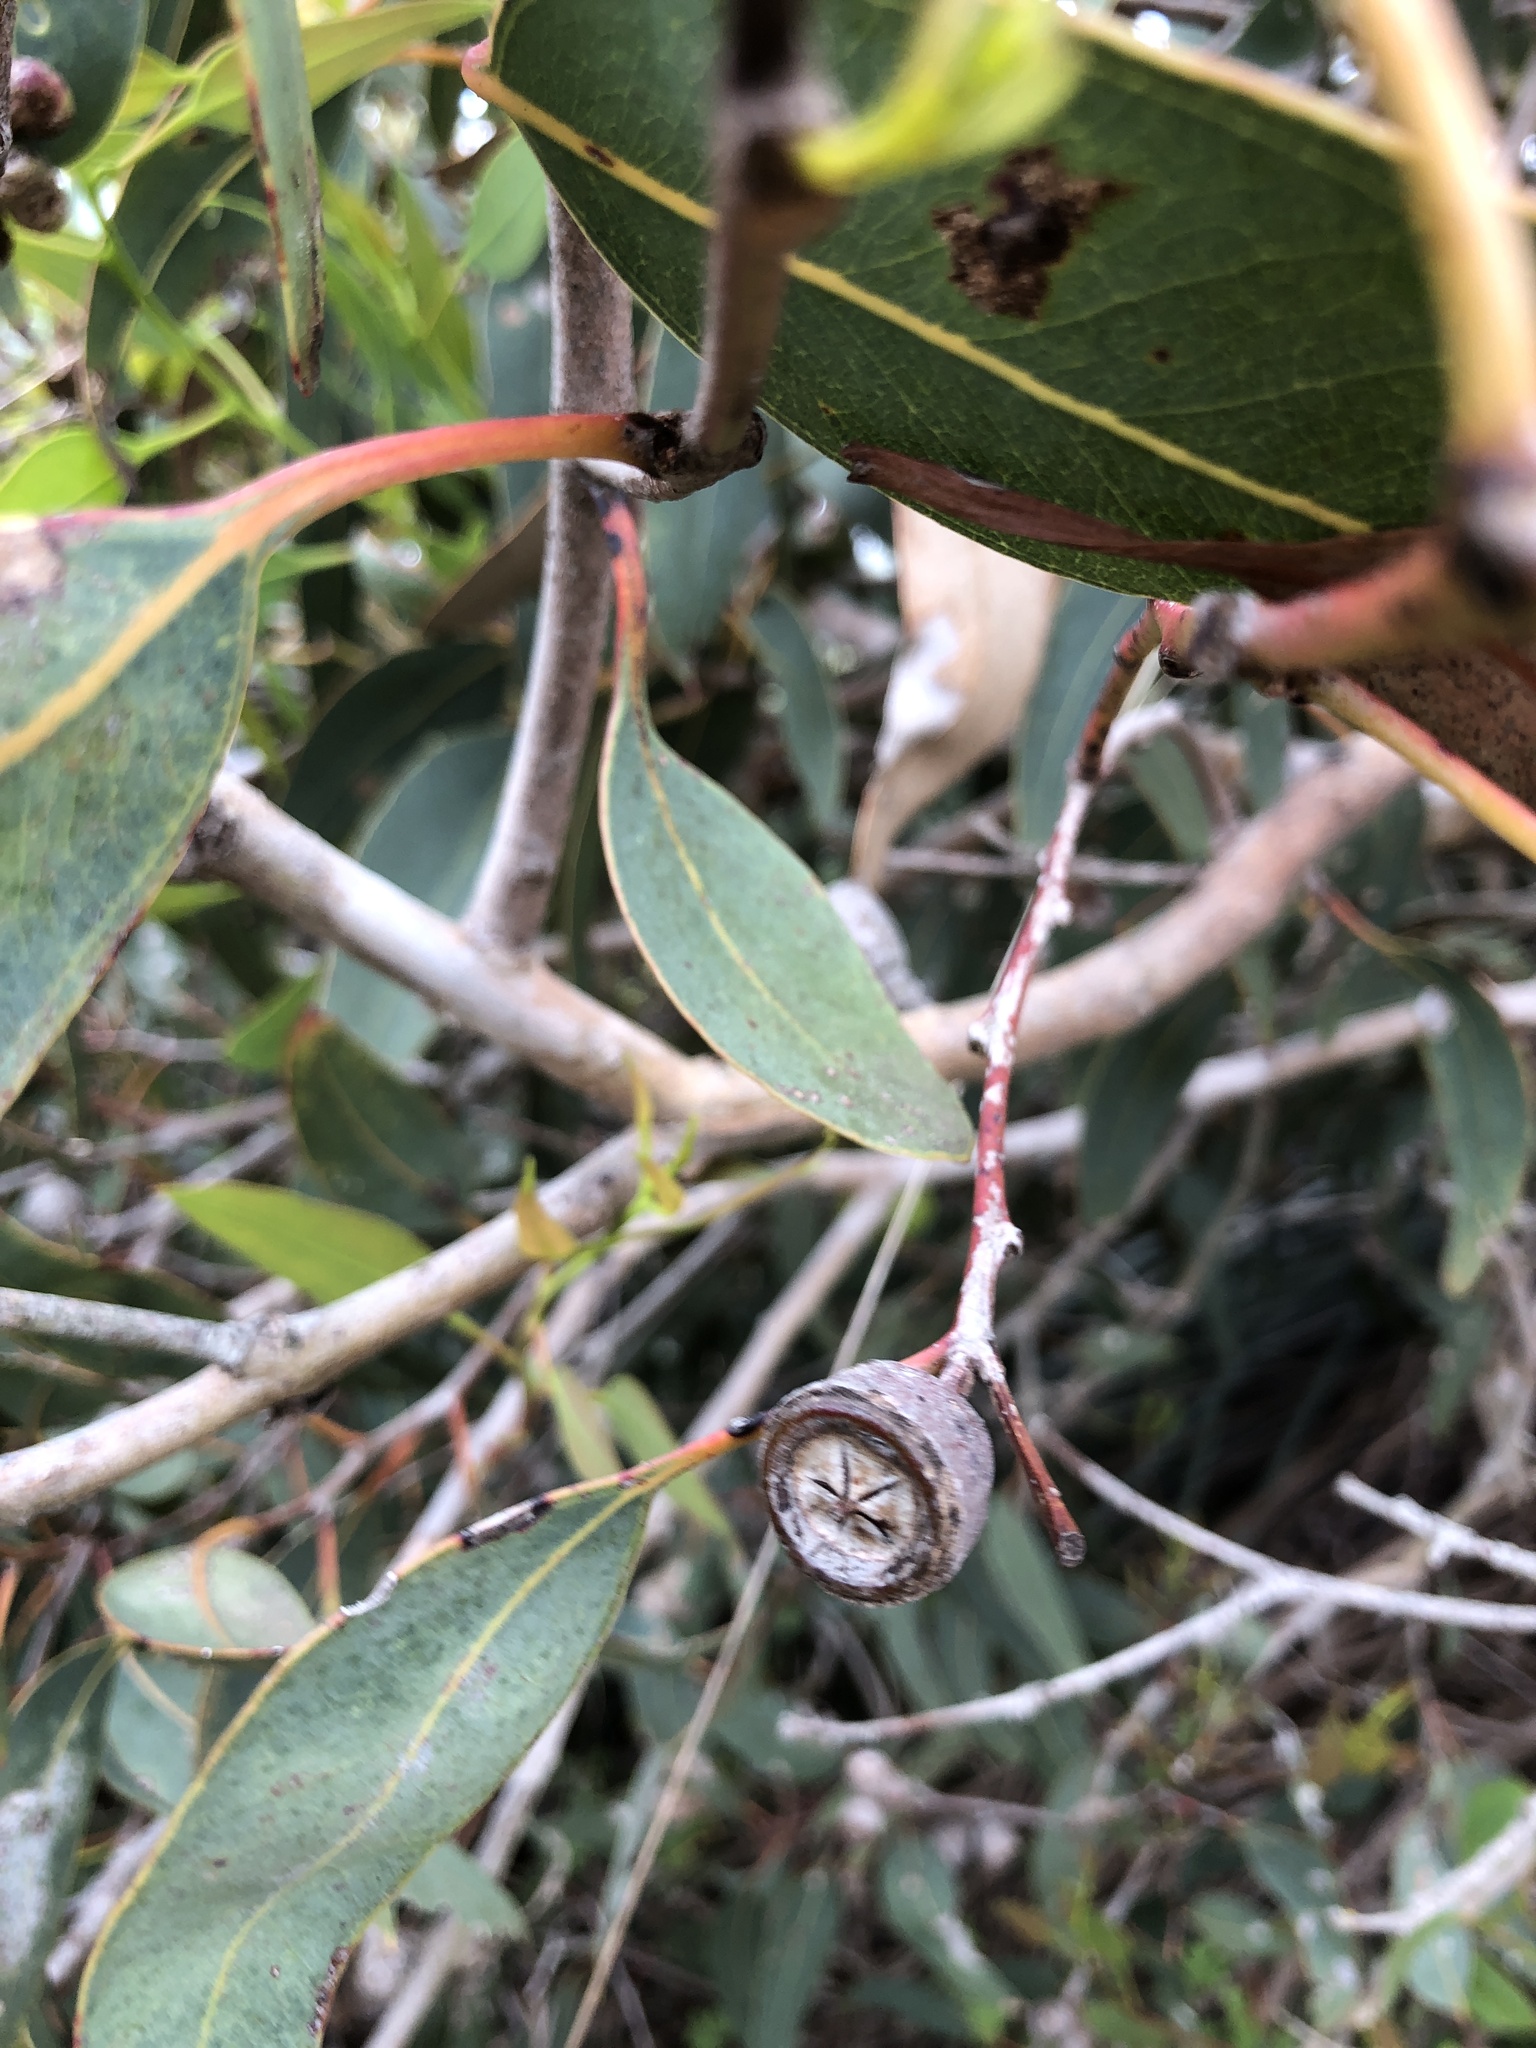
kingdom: Plantae
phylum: Tracheophyta
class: Magnoliopsida
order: Myrtales
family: Myrtaceae
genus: Eucalyptus
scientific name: Eucalyptus cosmophylla
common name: Bog-gum
